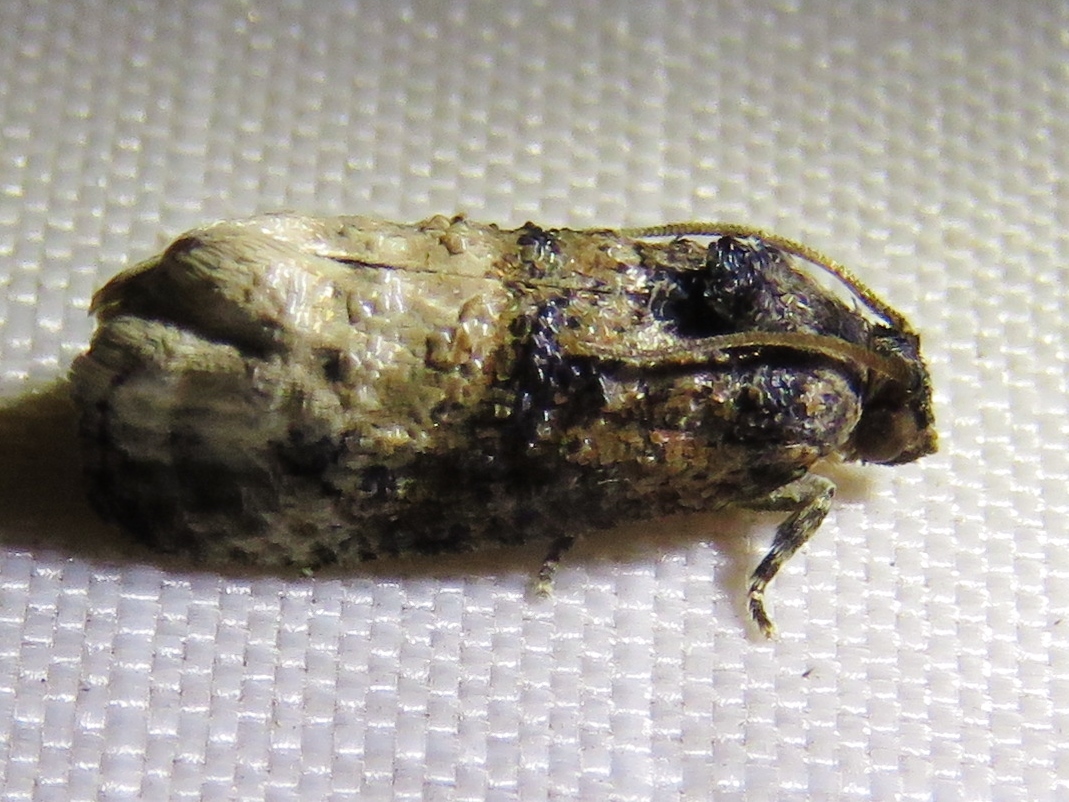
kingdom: Animalia
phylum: Arthropoda
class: Insecta
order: Lepidoptera
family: Tortricidae
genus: Ecdytolopha
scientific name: Ecdytolopha mana
